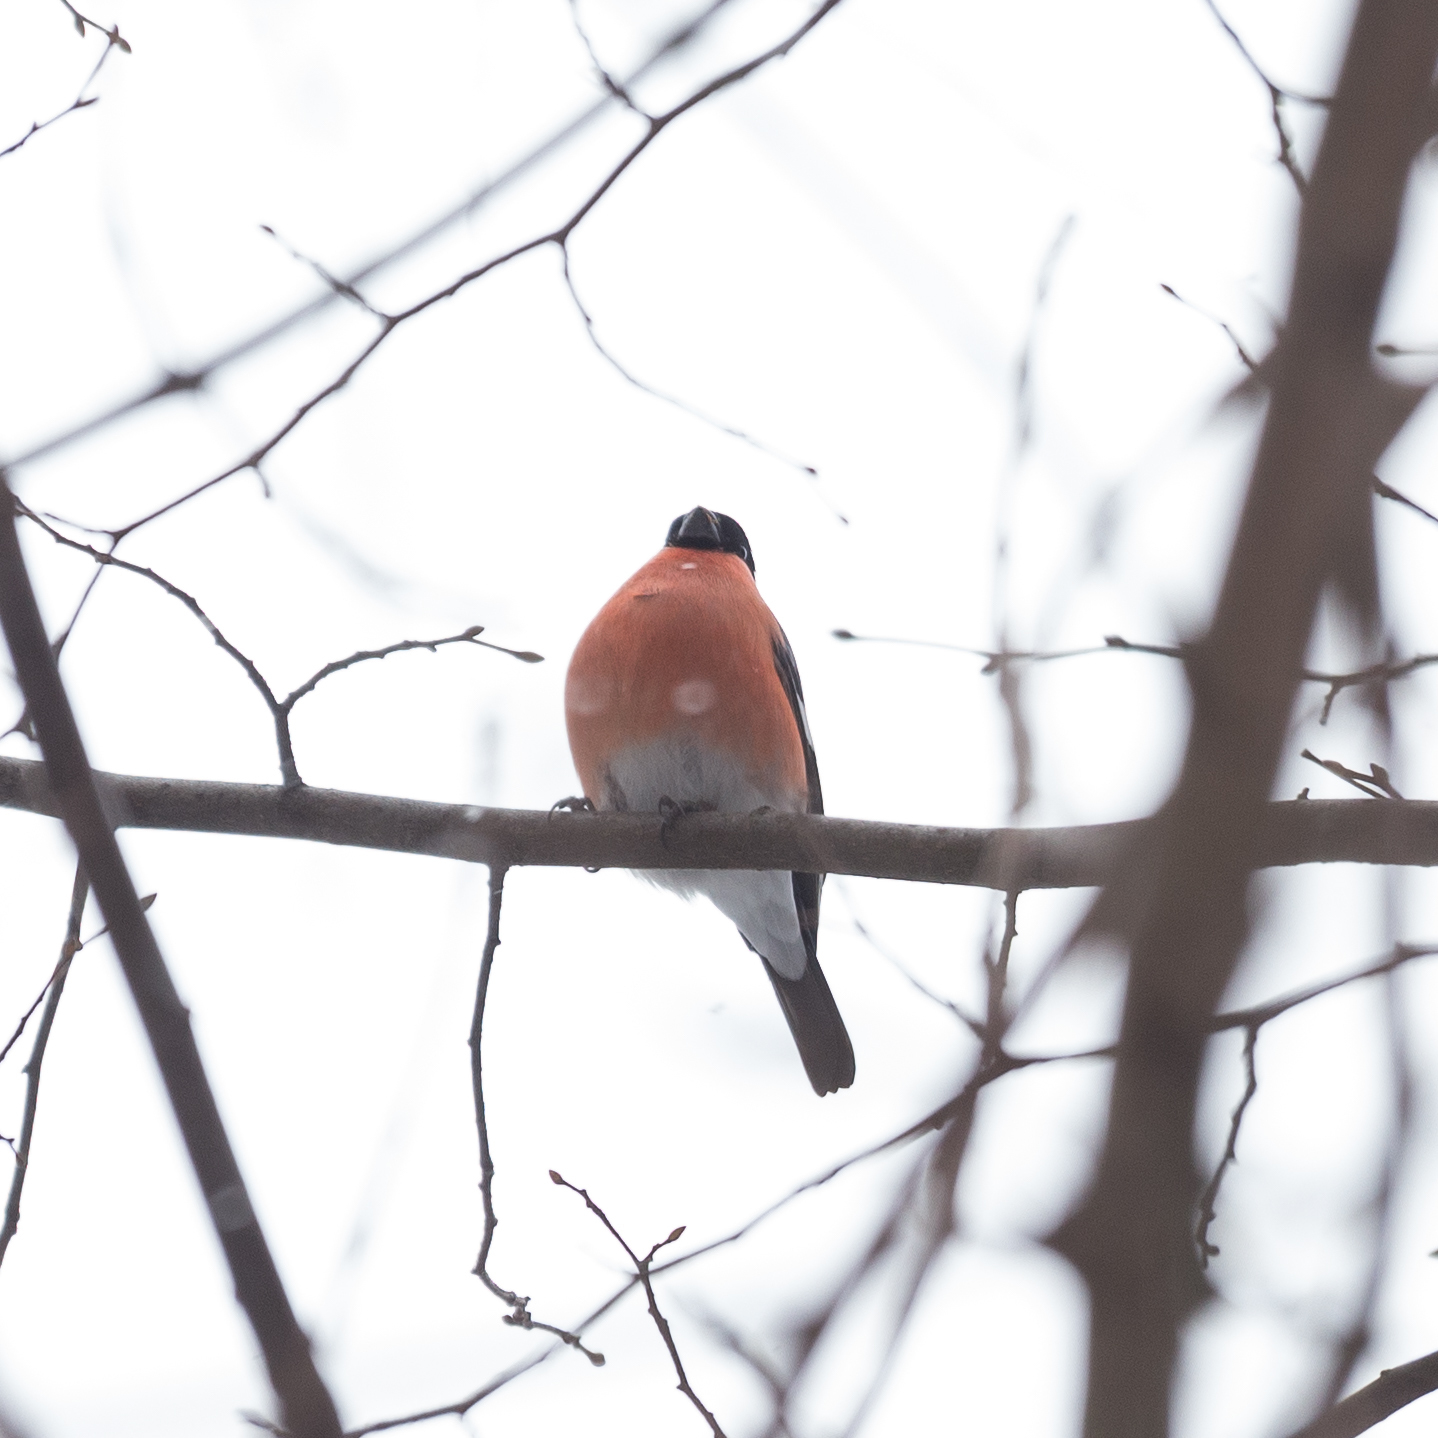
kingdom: Animalia
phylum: Chordata
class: Aves
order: Passeriformes
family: Fringillidae
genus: Pyrrhula
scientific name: Pyrrhula pyrrhula
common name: Eurasian bullfinch
